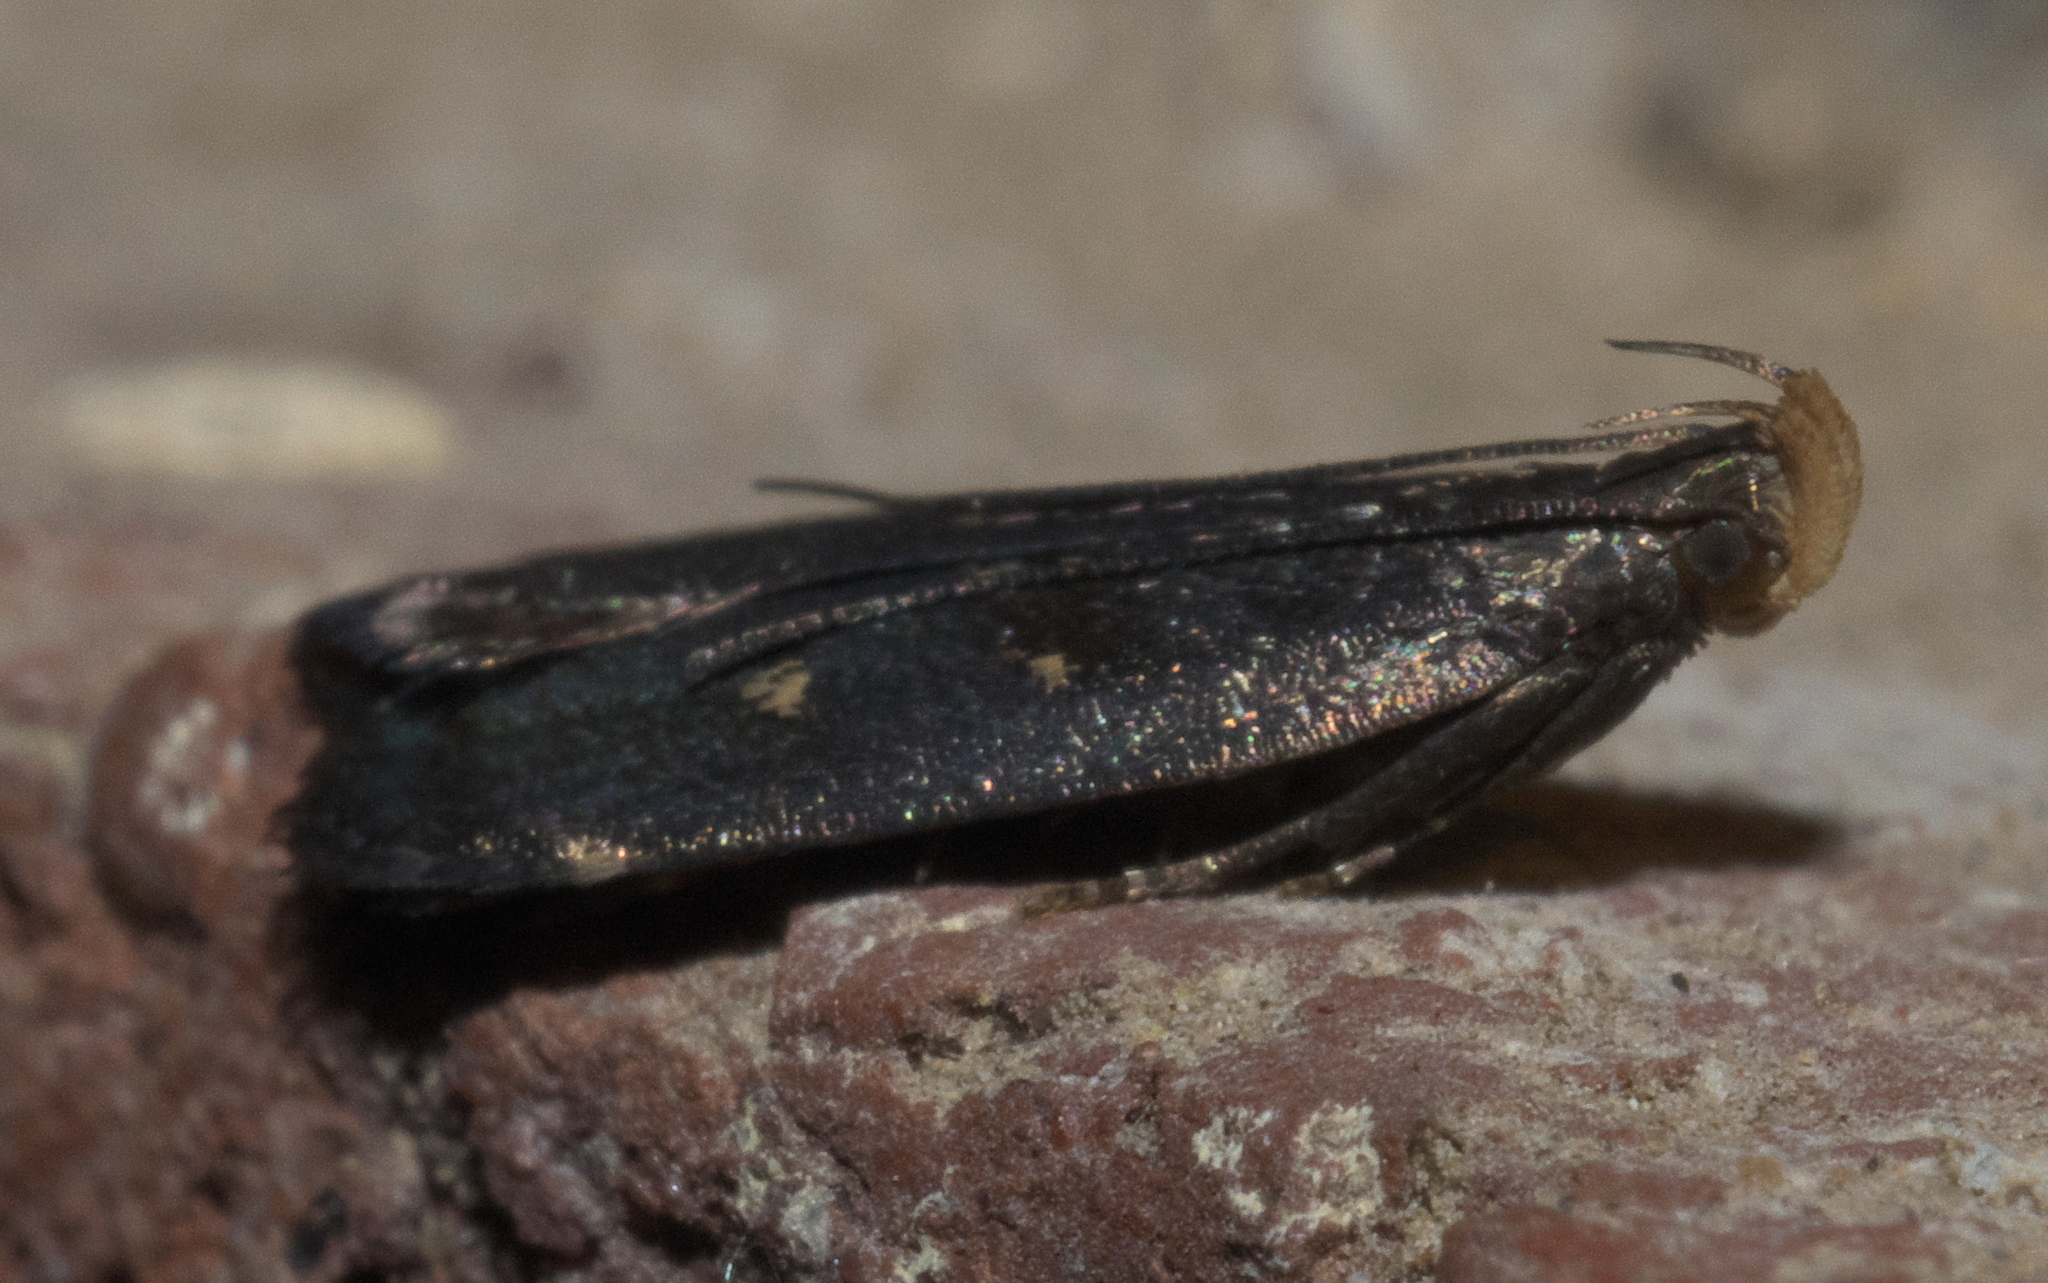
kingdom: Animalia
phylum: Arthropoda
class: Insecta
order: Lepidoptera
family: Gelechiidae
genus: Dichomeris
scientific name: Dichomeris juncidella
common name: Orange-dotted dichomeris moth
